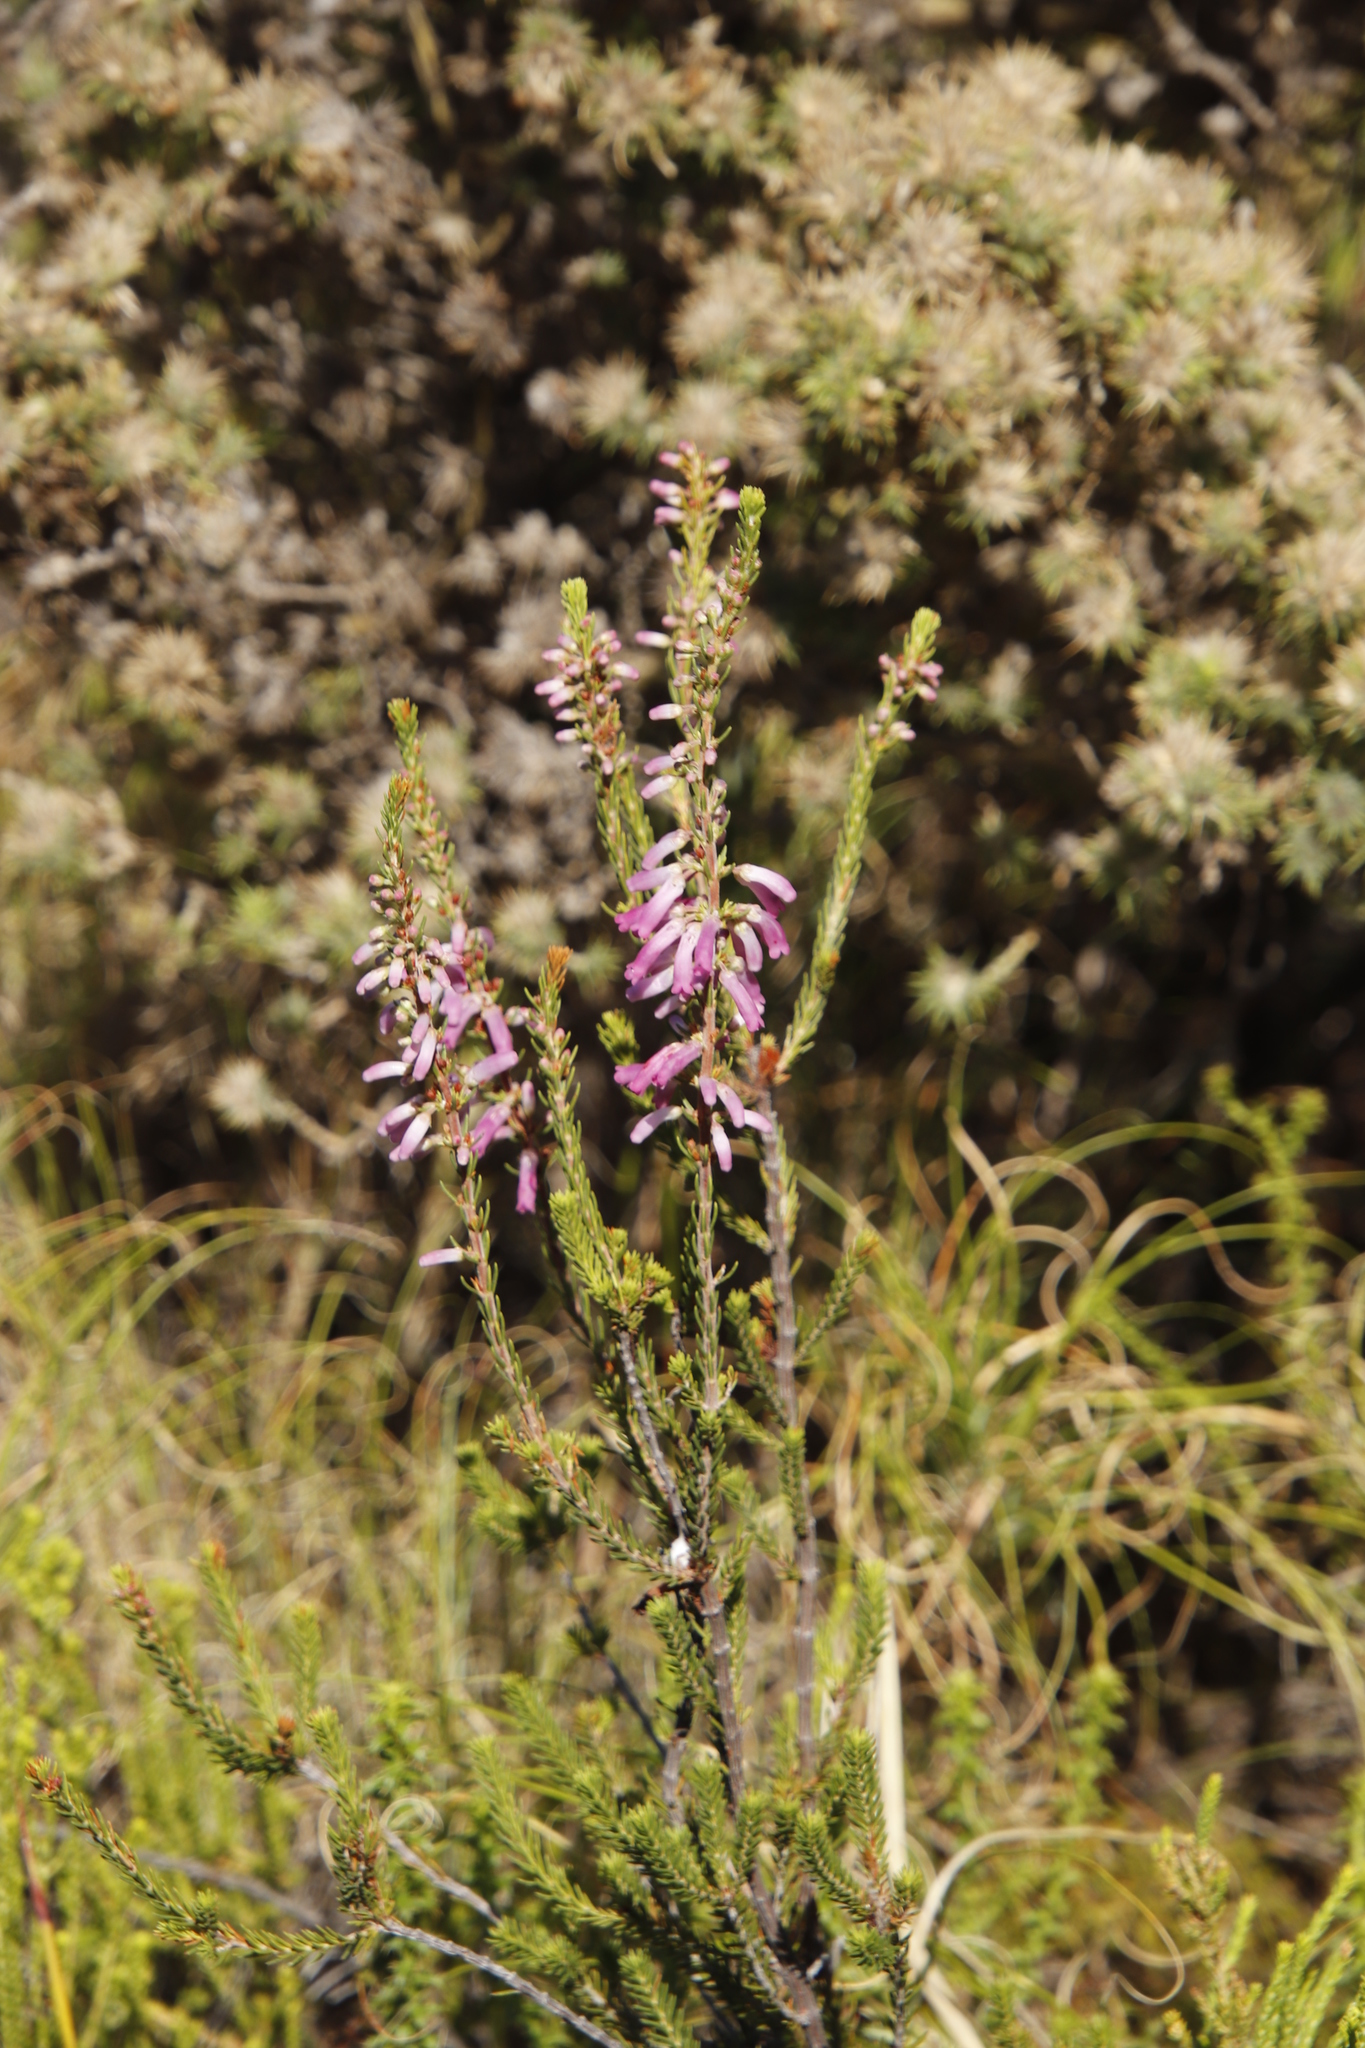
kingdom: Plantae
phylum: Tracheophyta
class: Magnoliopsida
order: Ericales
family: Ericaceae
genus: Erica
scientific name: Erica mammosa
